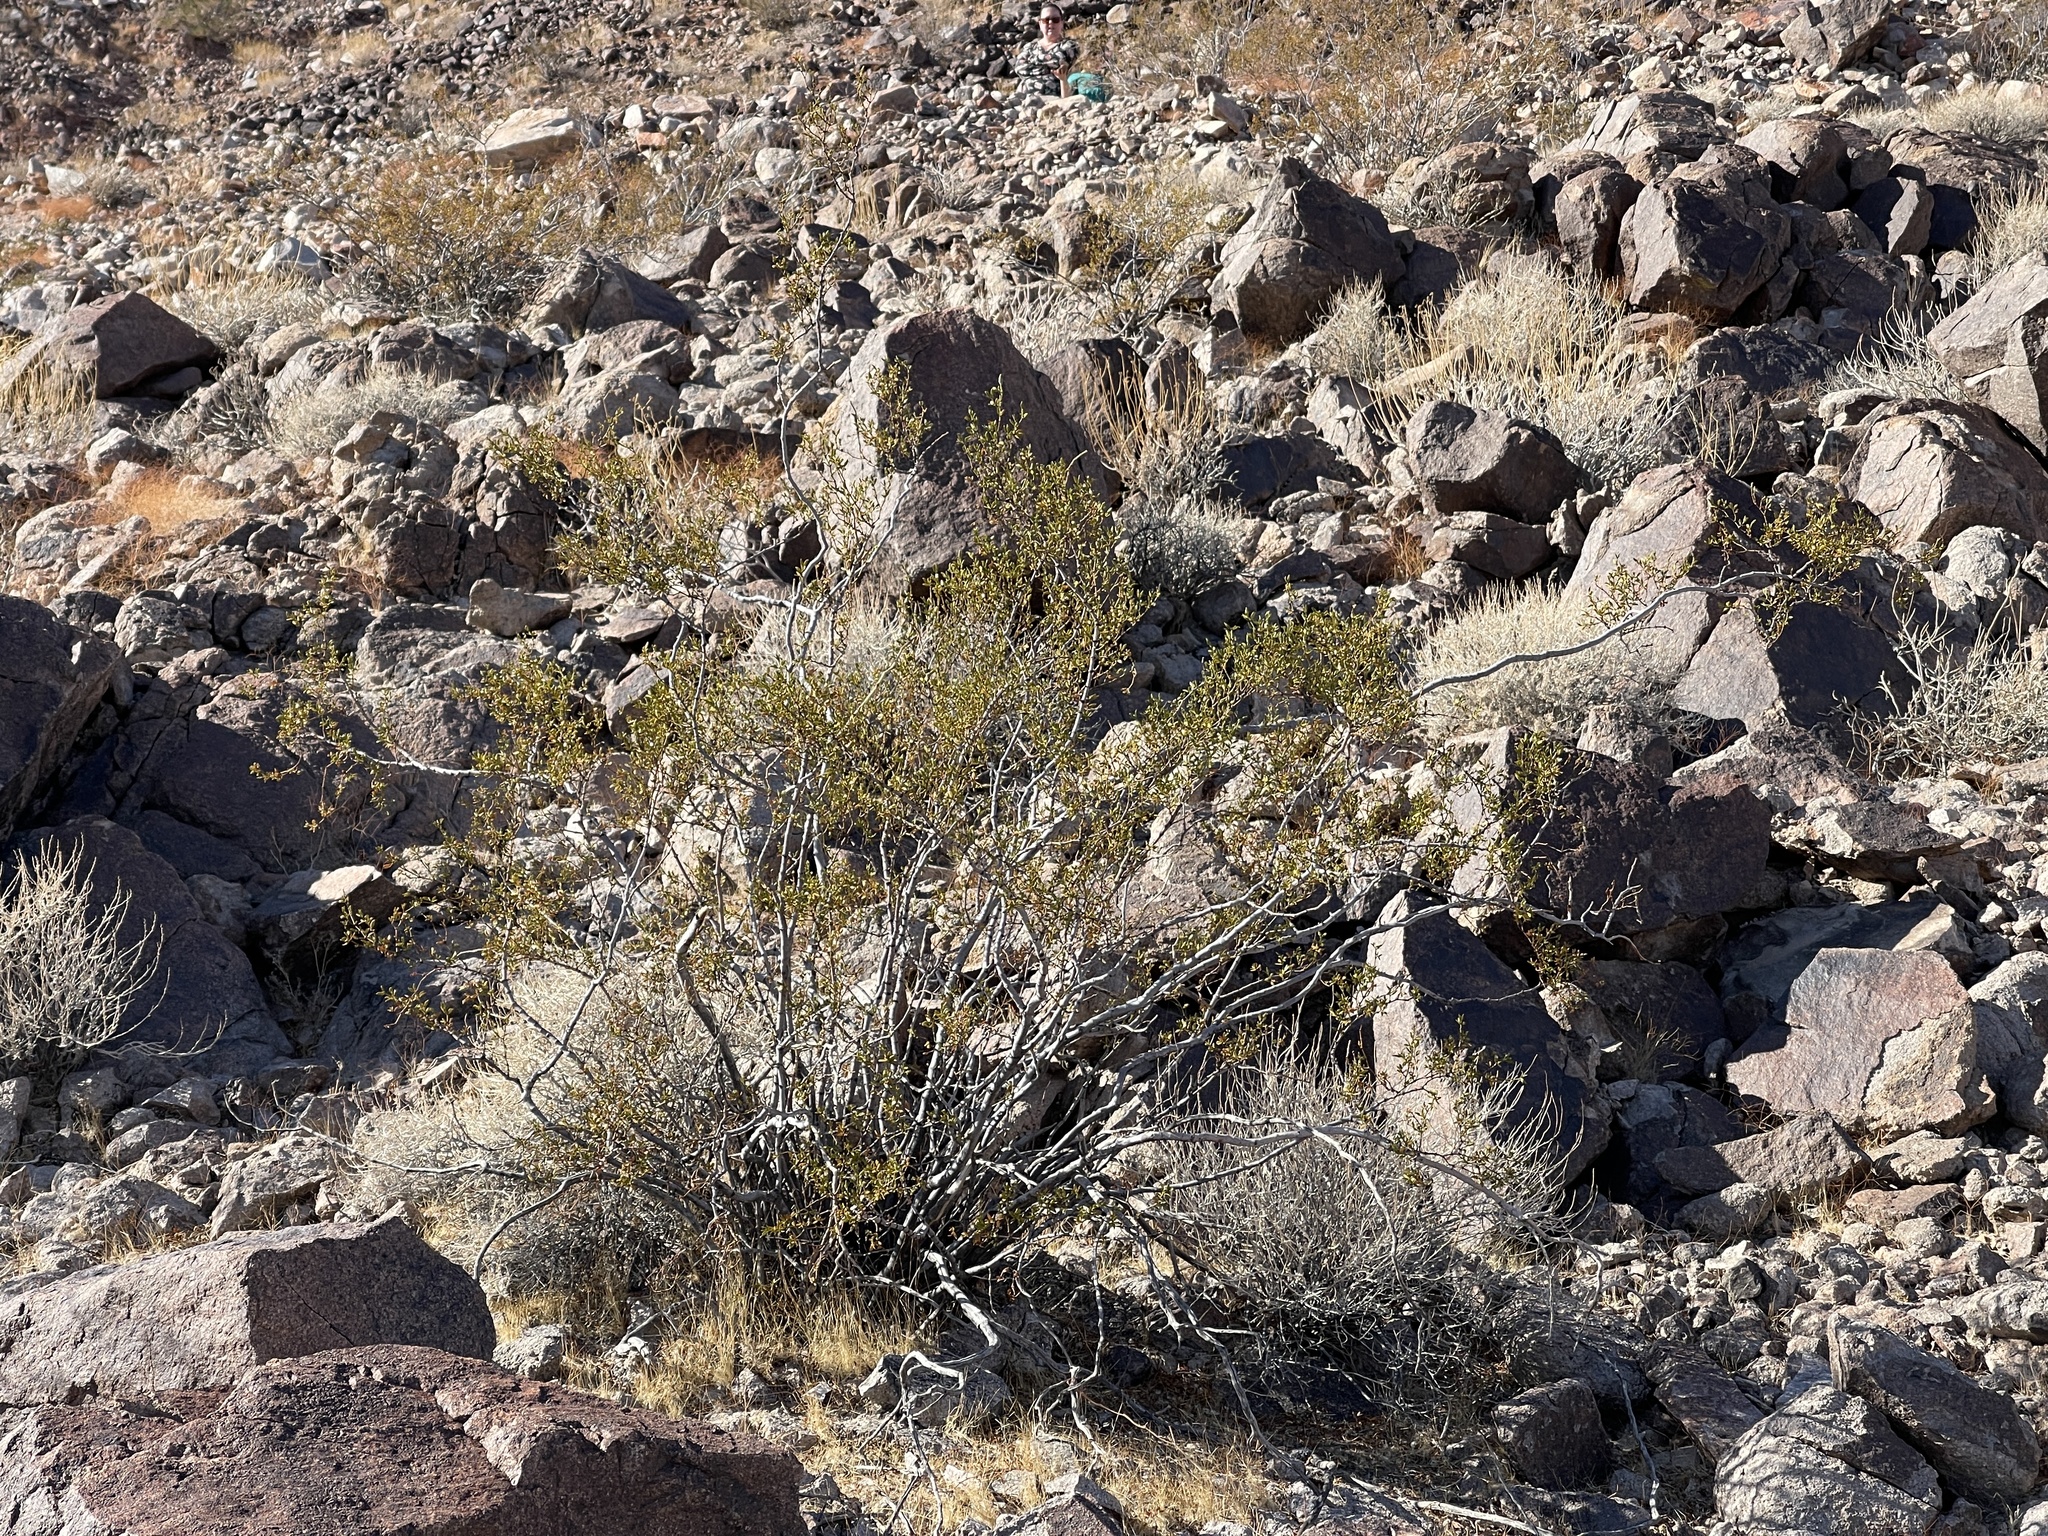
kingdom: Plantae
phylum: Tracheophyta
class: Magnoliopsida
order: Zygophyllales
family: Zygophyllaceae
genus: Larrea
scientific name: Larrea tridentata
